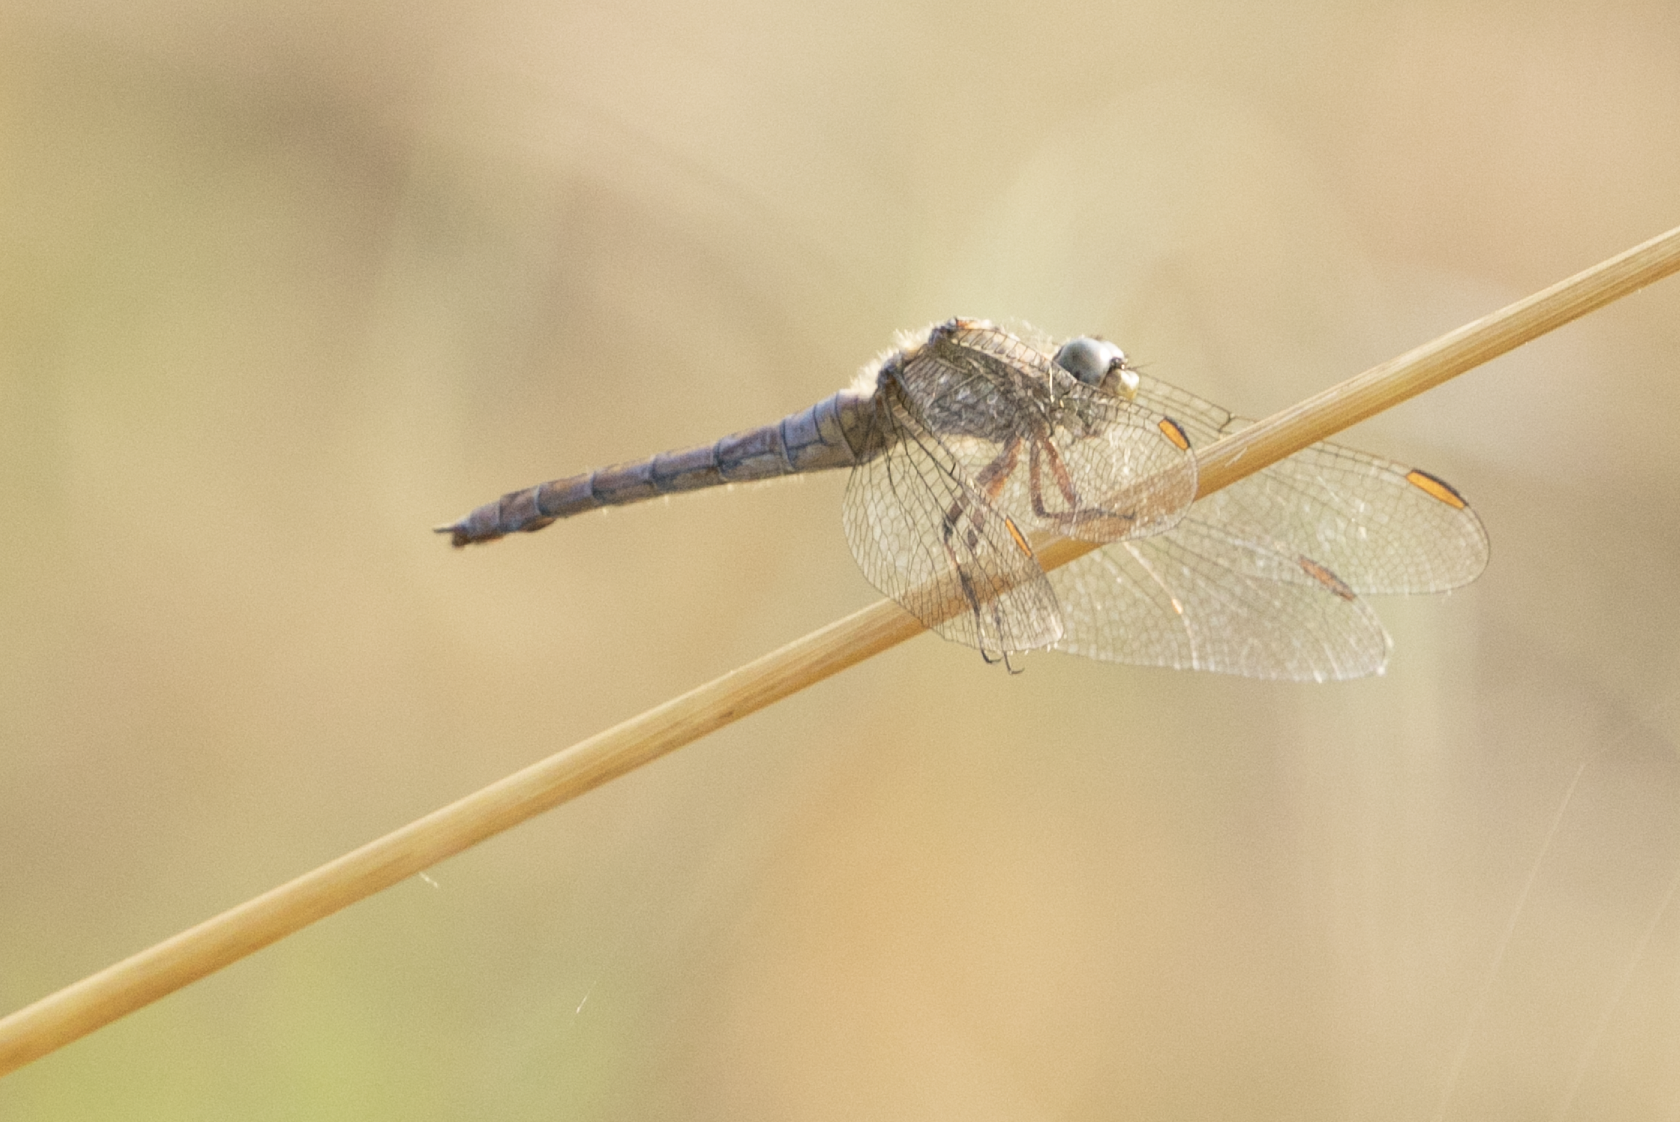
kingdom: Animalia
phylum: Arthropoda
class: Insecta
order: Odonata
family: Libellulidae
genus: Orthetrum
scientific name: Orthetrum coerulescens
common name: Keeled skimmer
